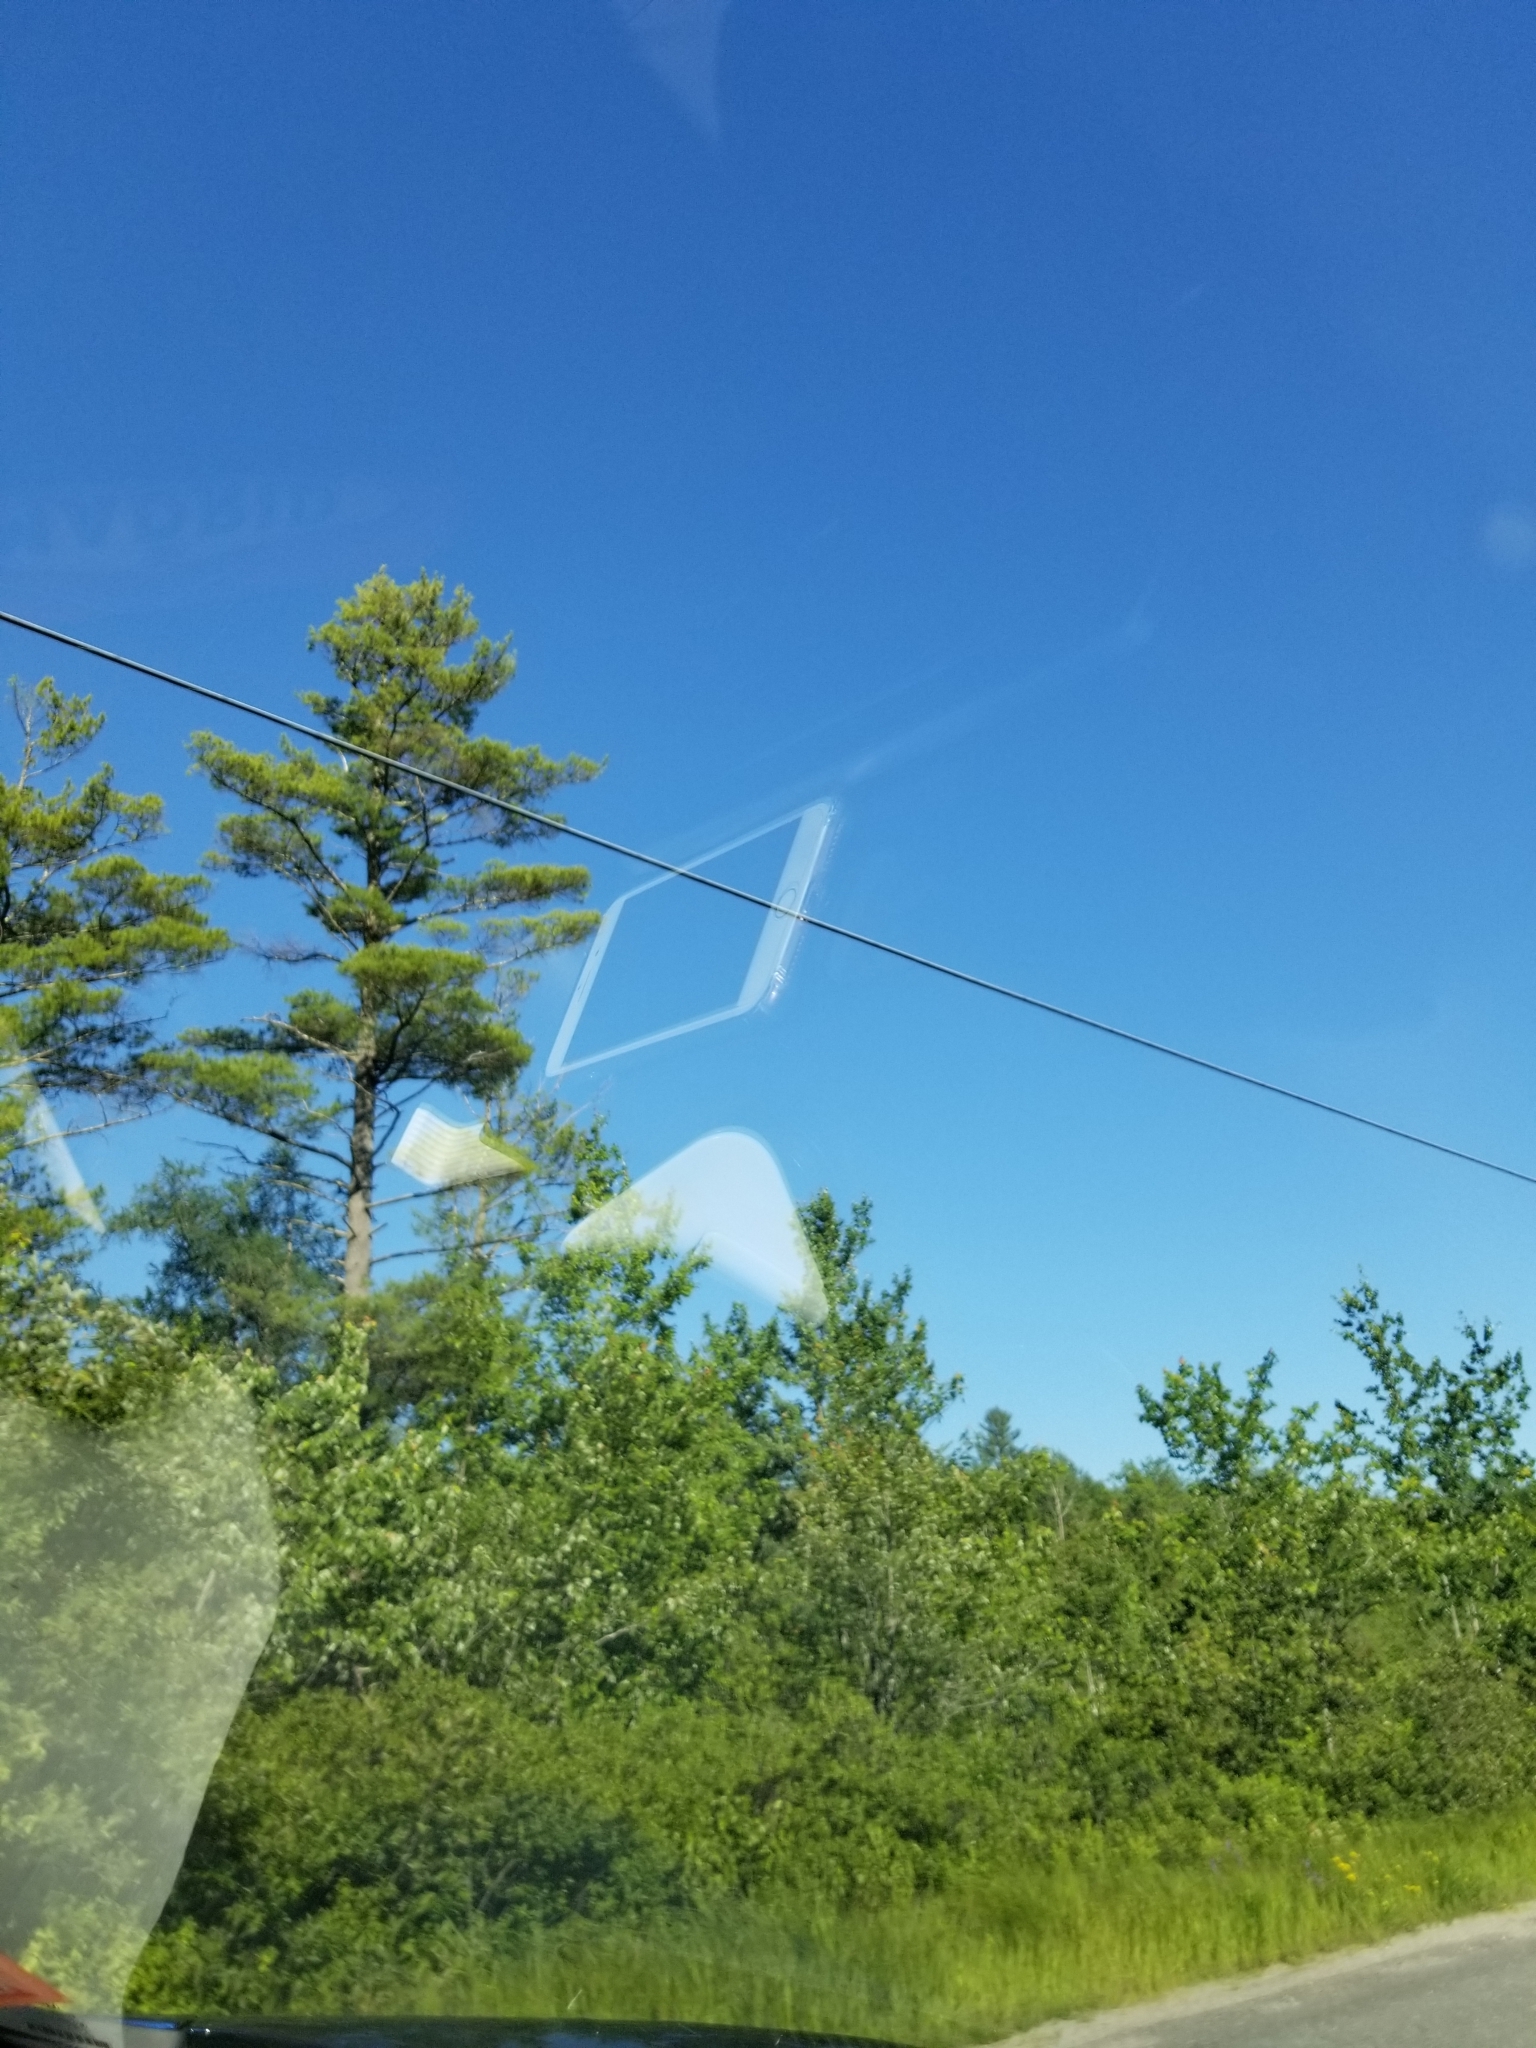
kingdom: Plantae
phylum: Tracheophyta
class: Pinopsida
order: Pinales
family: Pinaceae
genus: Pinus
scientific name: Pinus strobus
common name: Weymouth pine
